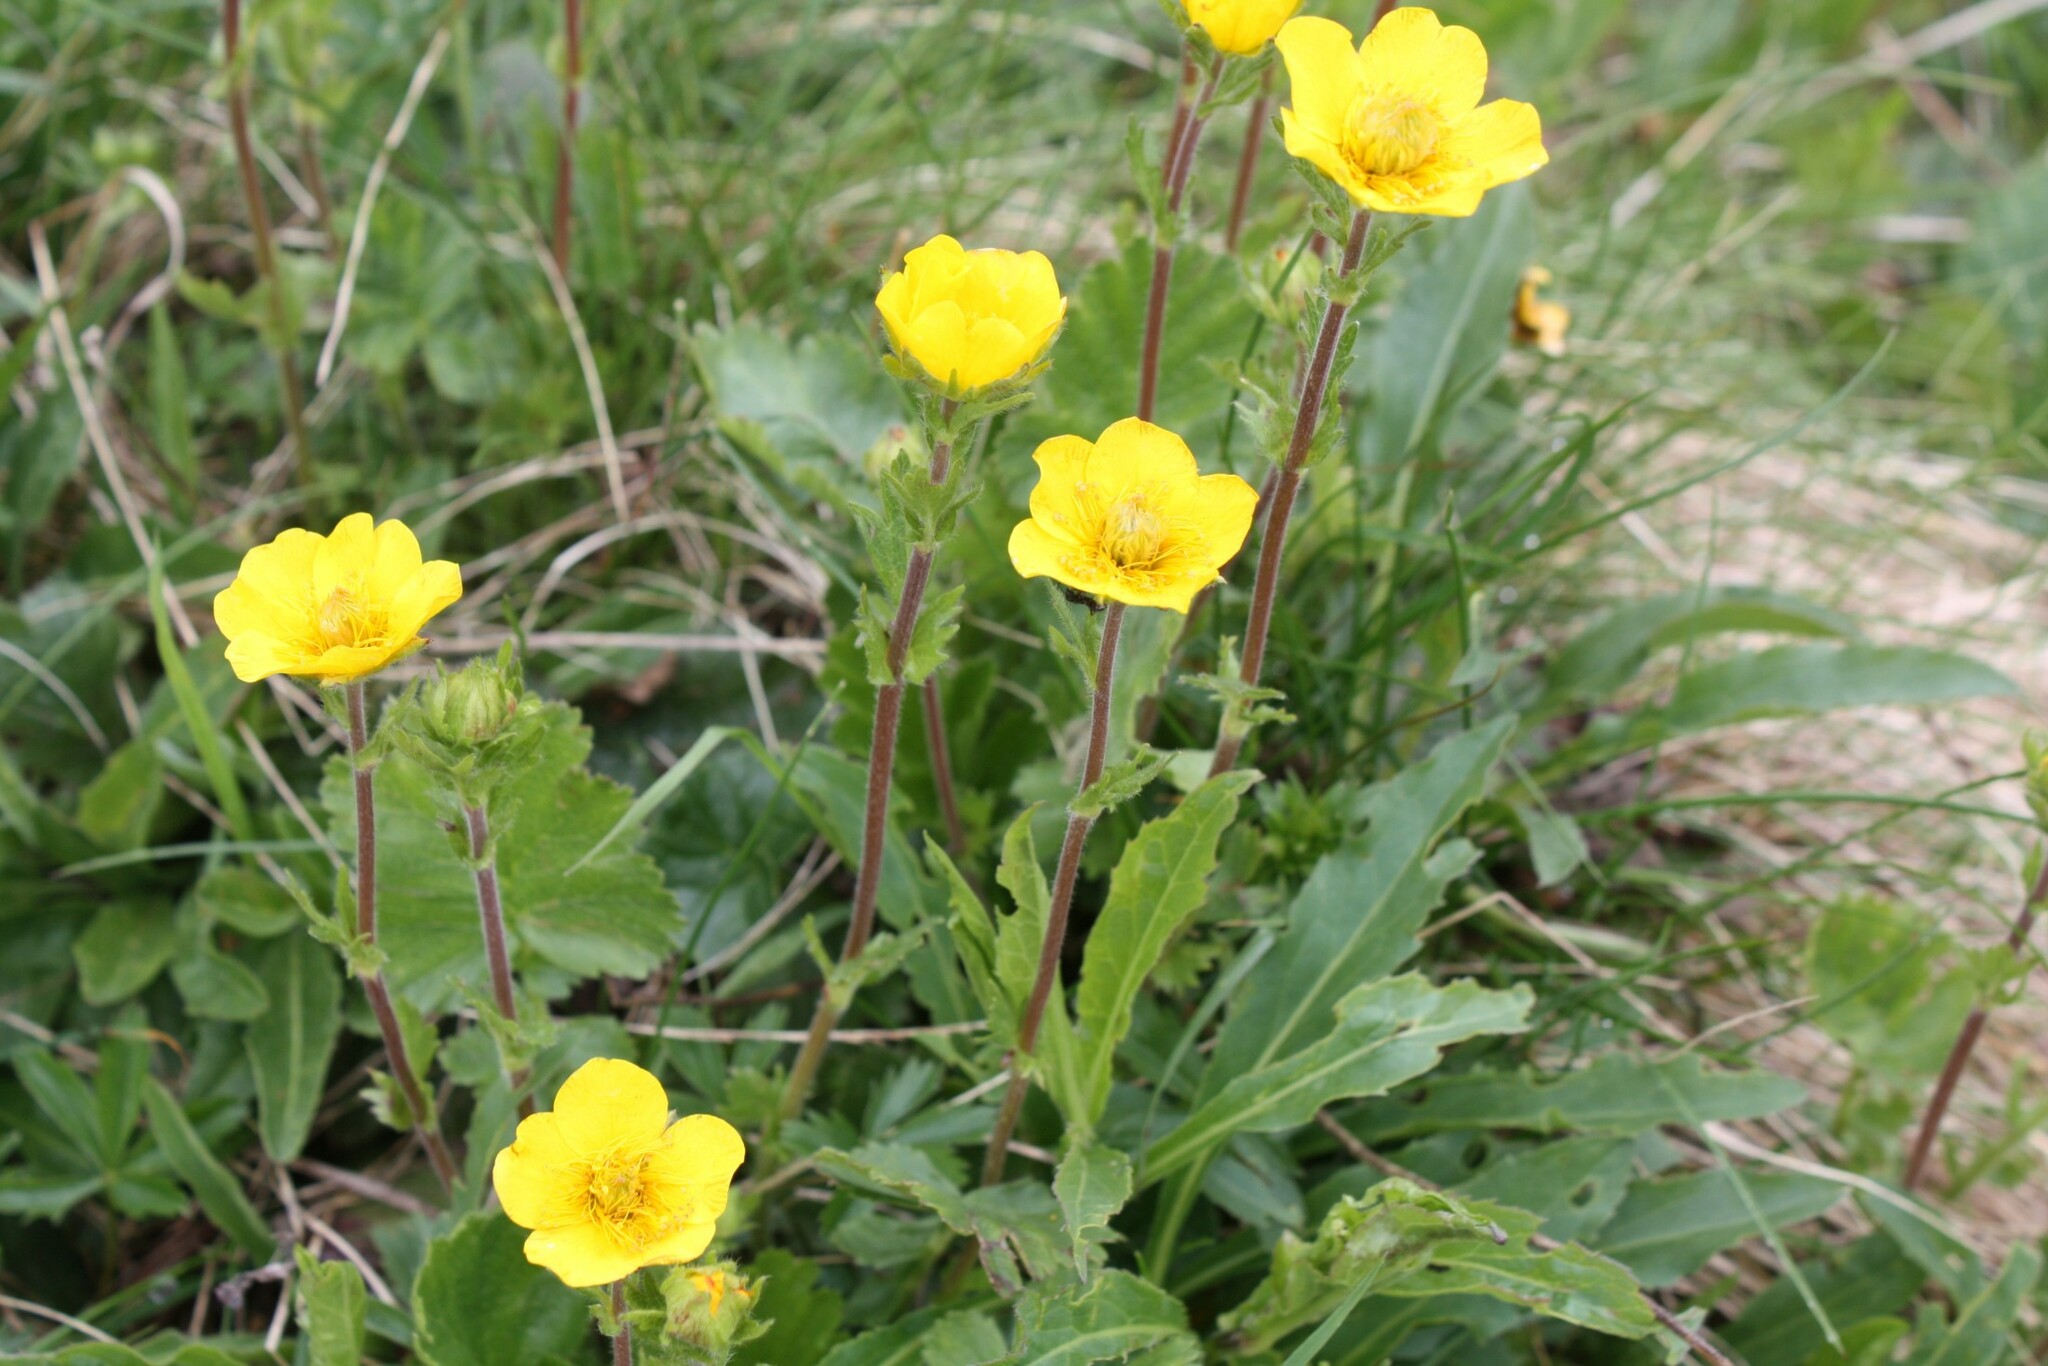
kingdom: Plantae
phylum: Tracheophyta
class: Magnoliopsida
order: Rosales
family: Rosaceae
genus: Geum
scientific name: Geum montanum
